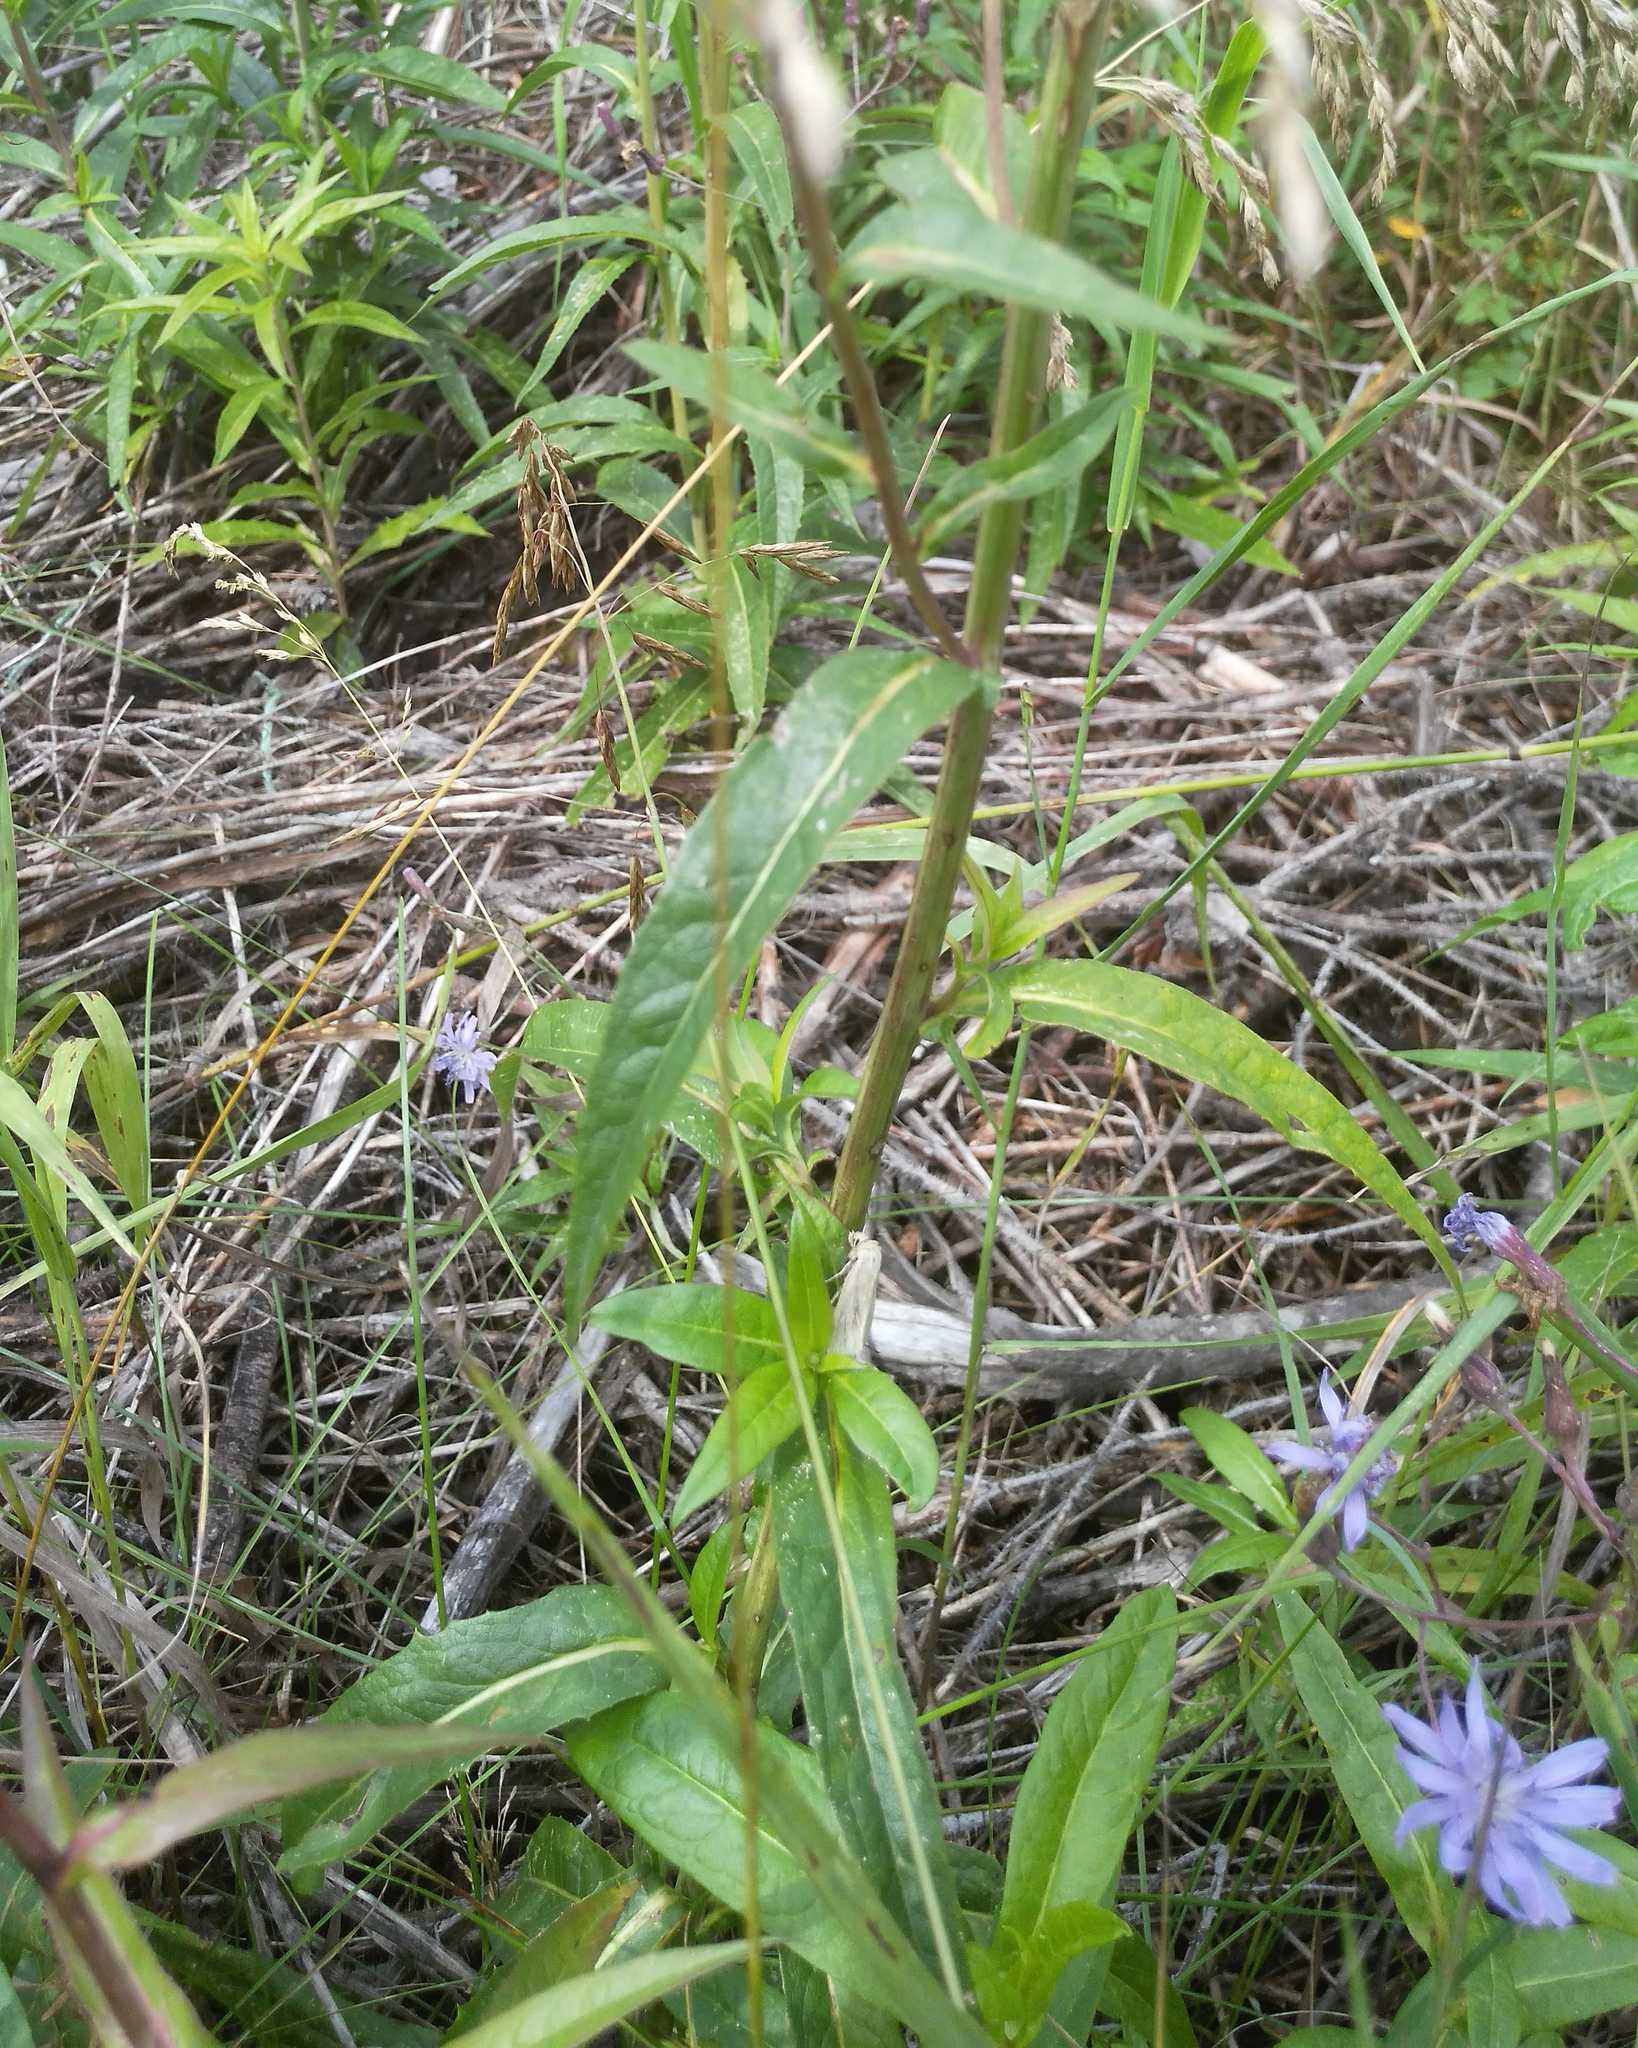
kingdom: Plantae
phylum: Tracheophyta
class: Magnoliopsida
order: Asterales
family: Asteraceae
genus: Lactuca
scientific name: Lactuca sibirica
